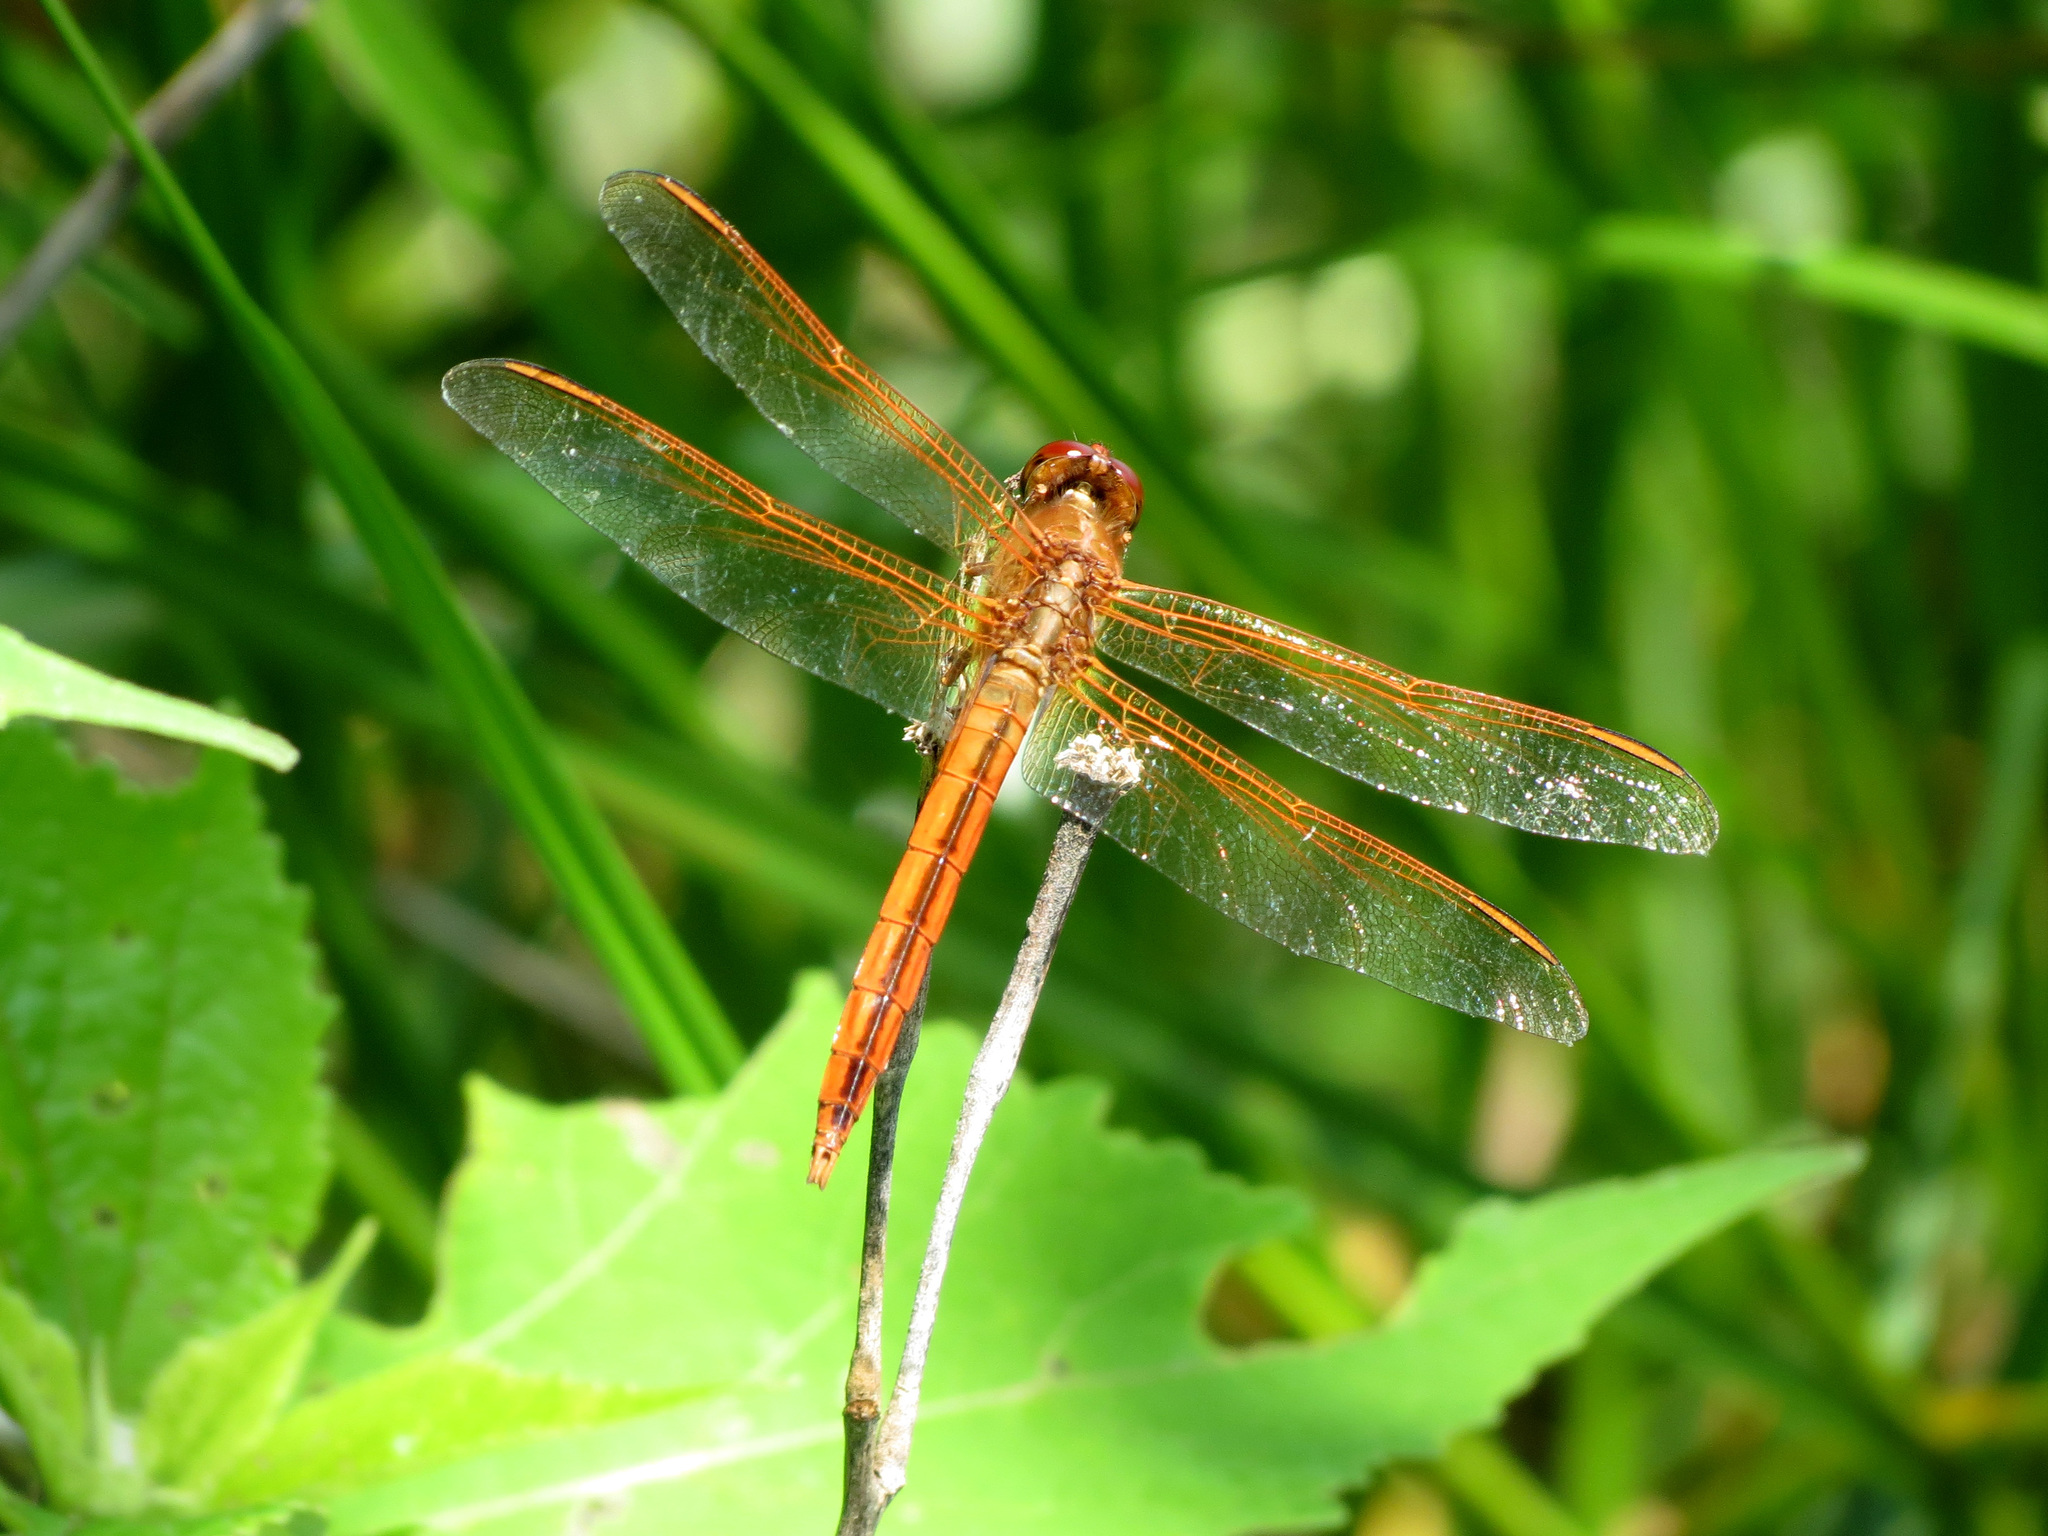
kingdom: Animalia
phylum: Arthropoda
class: Insecta
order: Odonata
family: Libellulidae
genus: Libellula
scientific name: Libellula needhami
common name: Needham's skimmer
